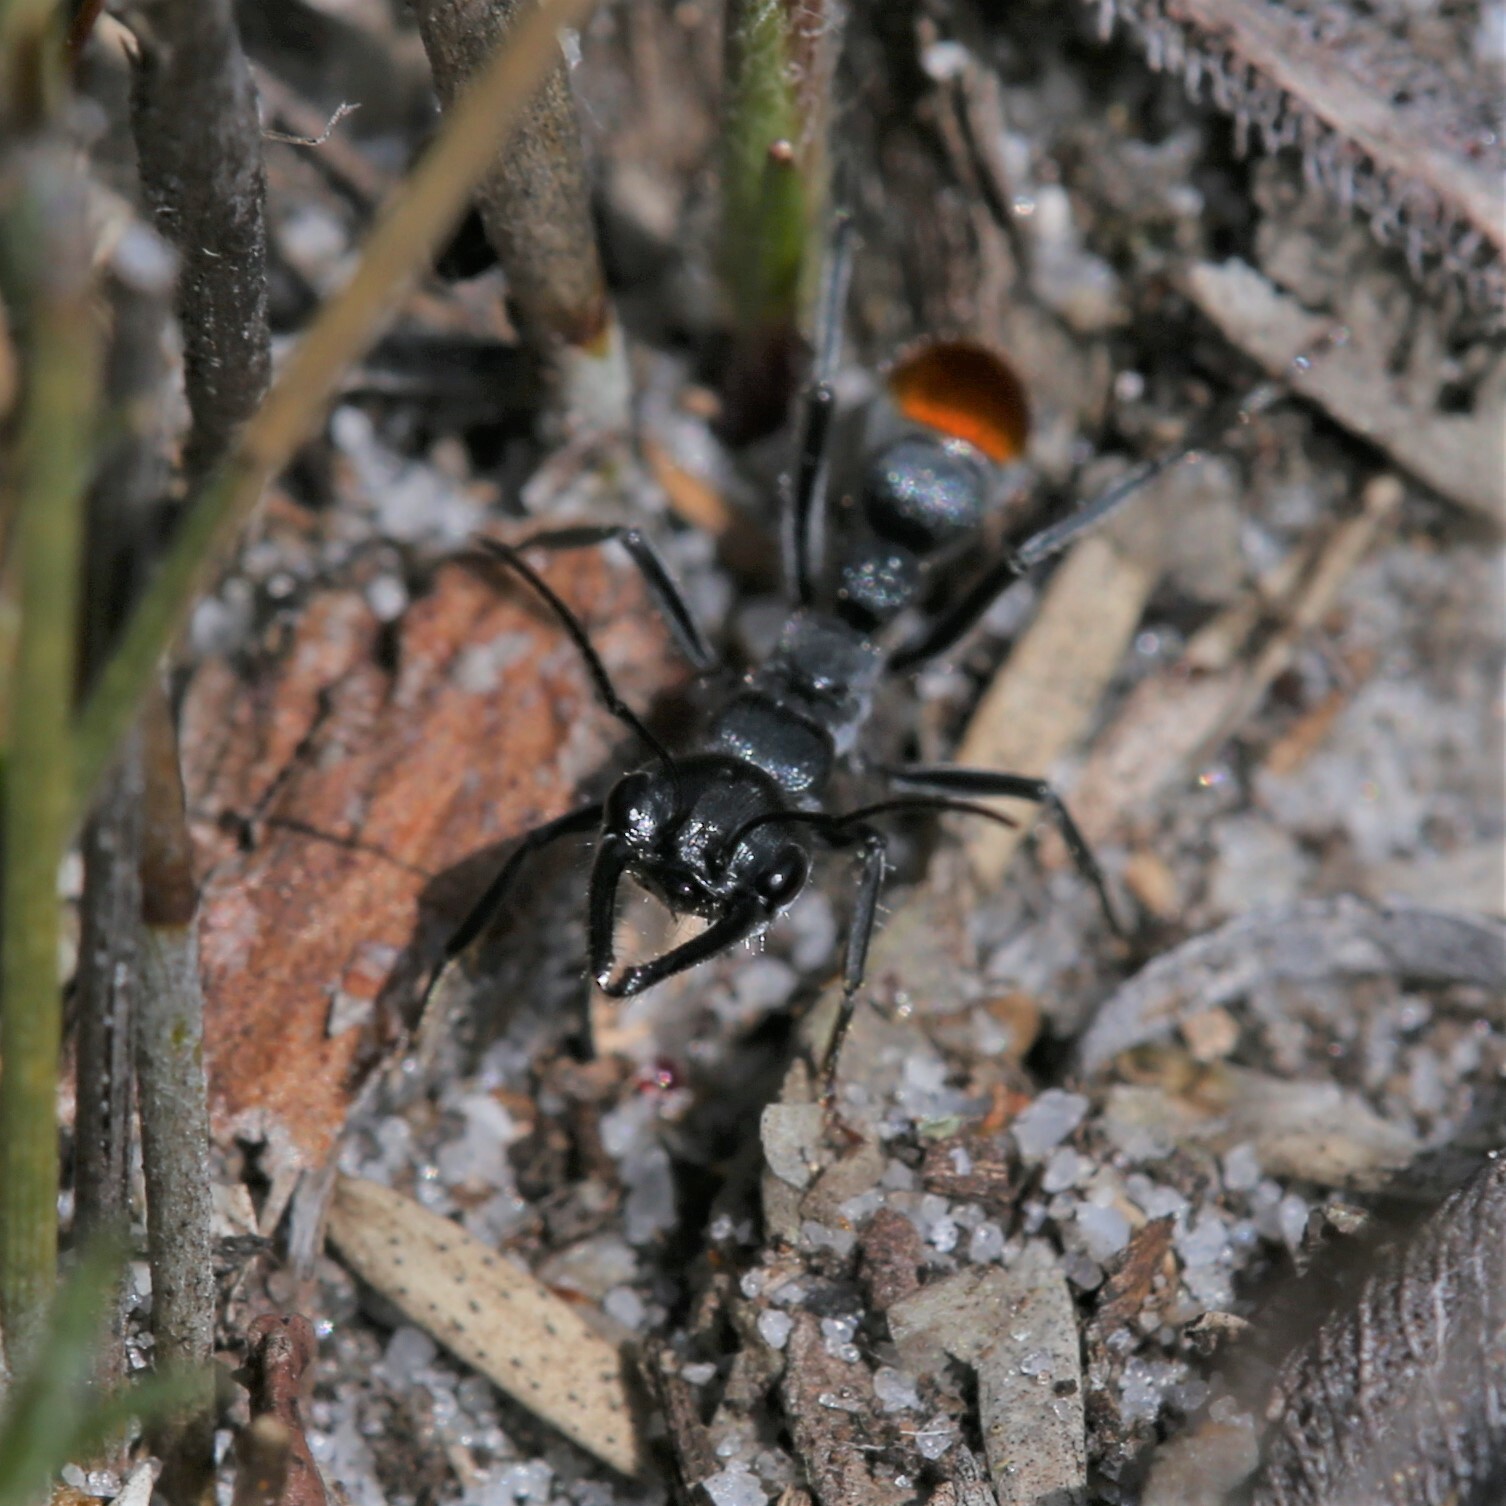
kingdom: Animalia
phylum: Arthropoda
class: Insecta
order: Hymenoptera
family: Formicidae
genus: Myrmecia
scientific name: Myrmecia mandibularis
